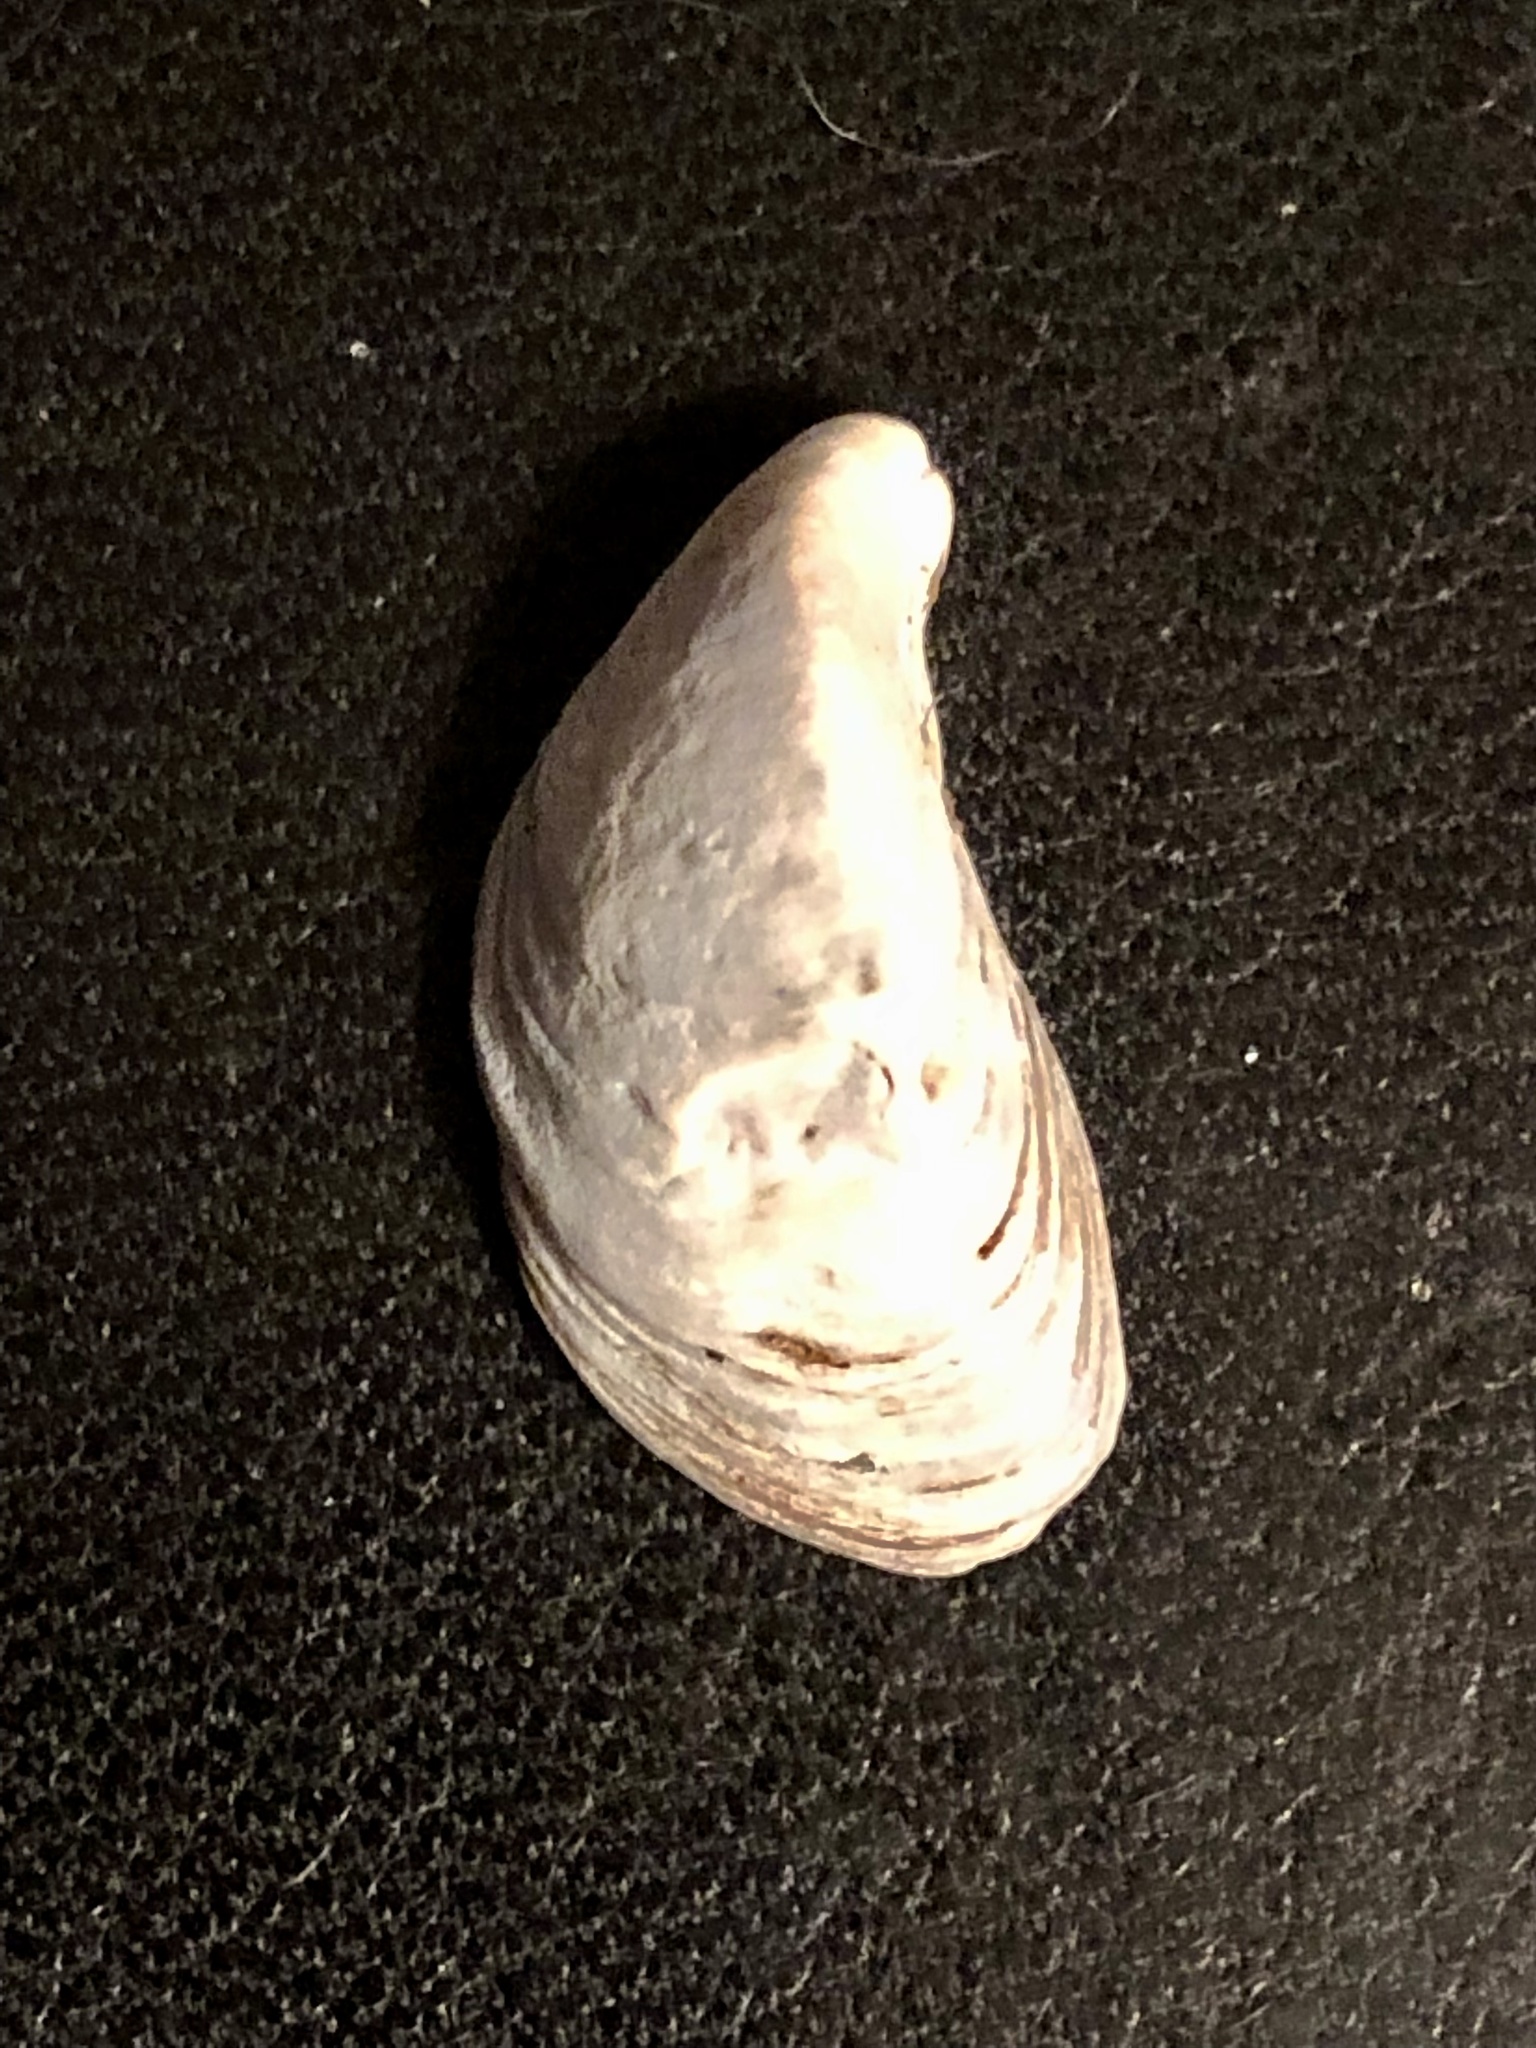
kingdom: Animalia
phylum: Mollusca
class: Bivalvia
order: Myida
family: Dreissenidae
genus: Dreissena
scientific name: Dreissena bugensis
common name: Quagga mussel
